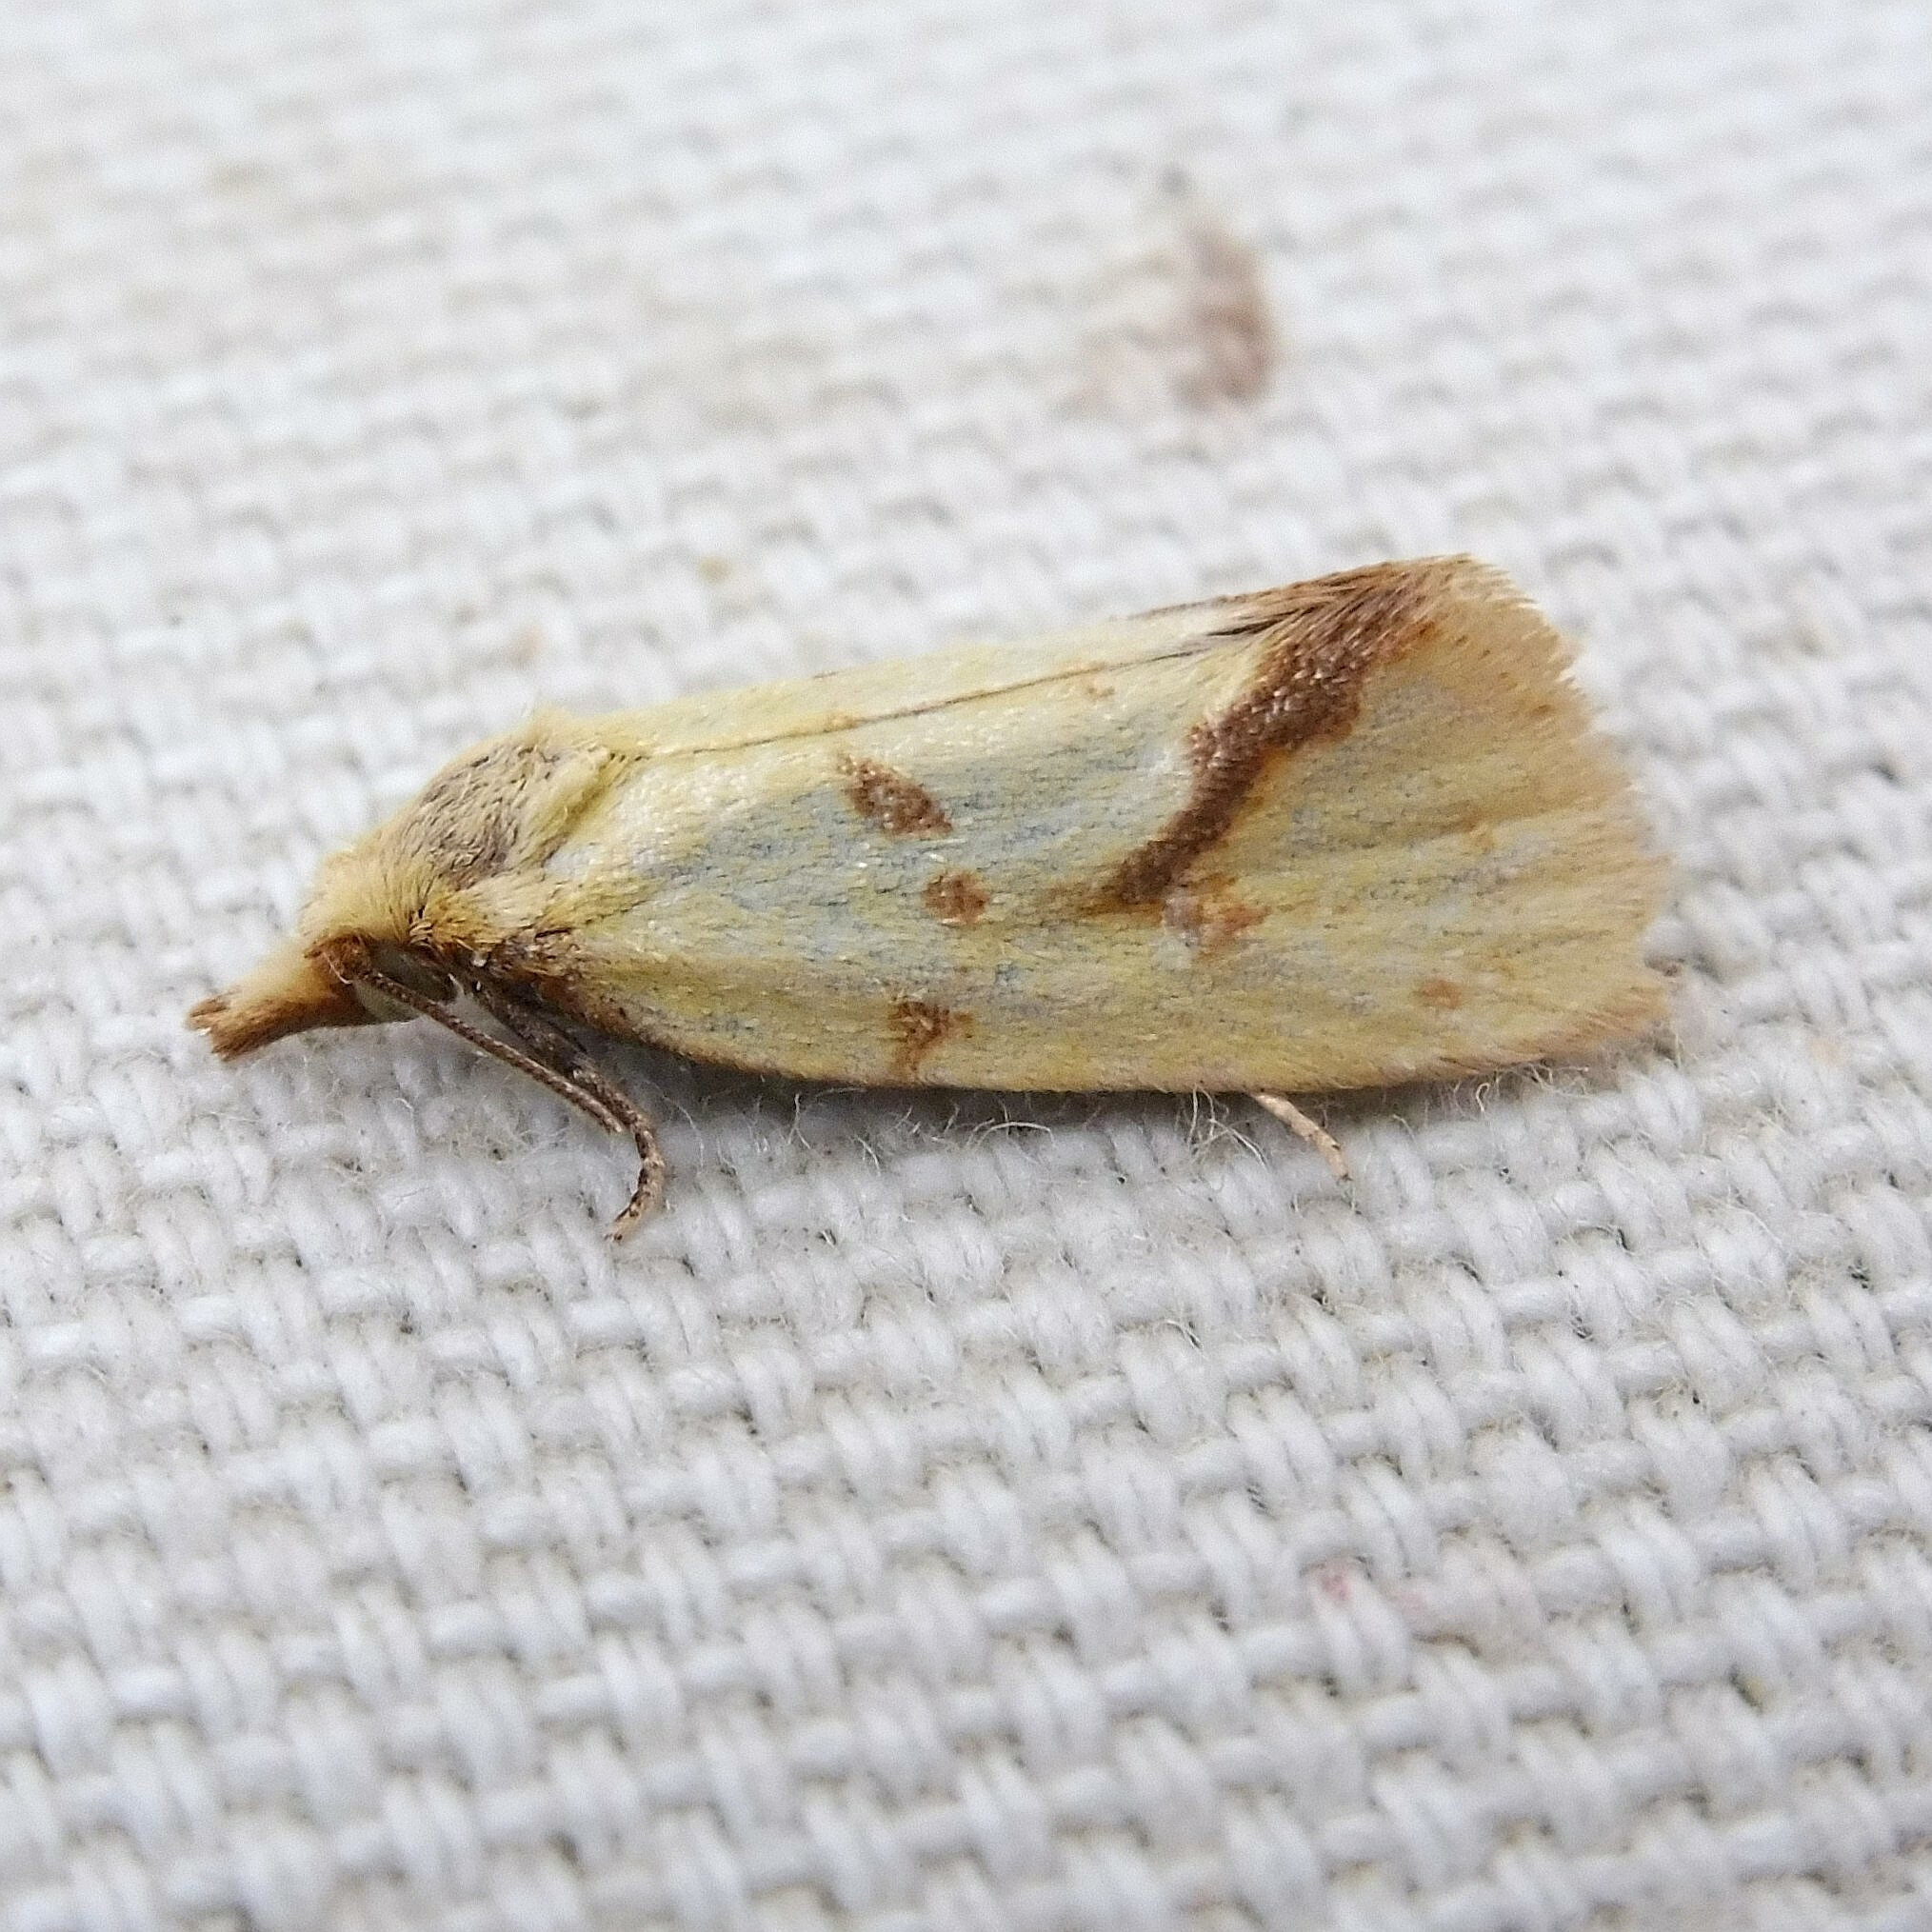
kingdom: Animalia
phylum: Arthropoda
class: Insecta
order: Lepidoptera
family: Tortricidae
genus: Agapeta
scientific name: Agapeta hamana
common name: Common yellow conch
